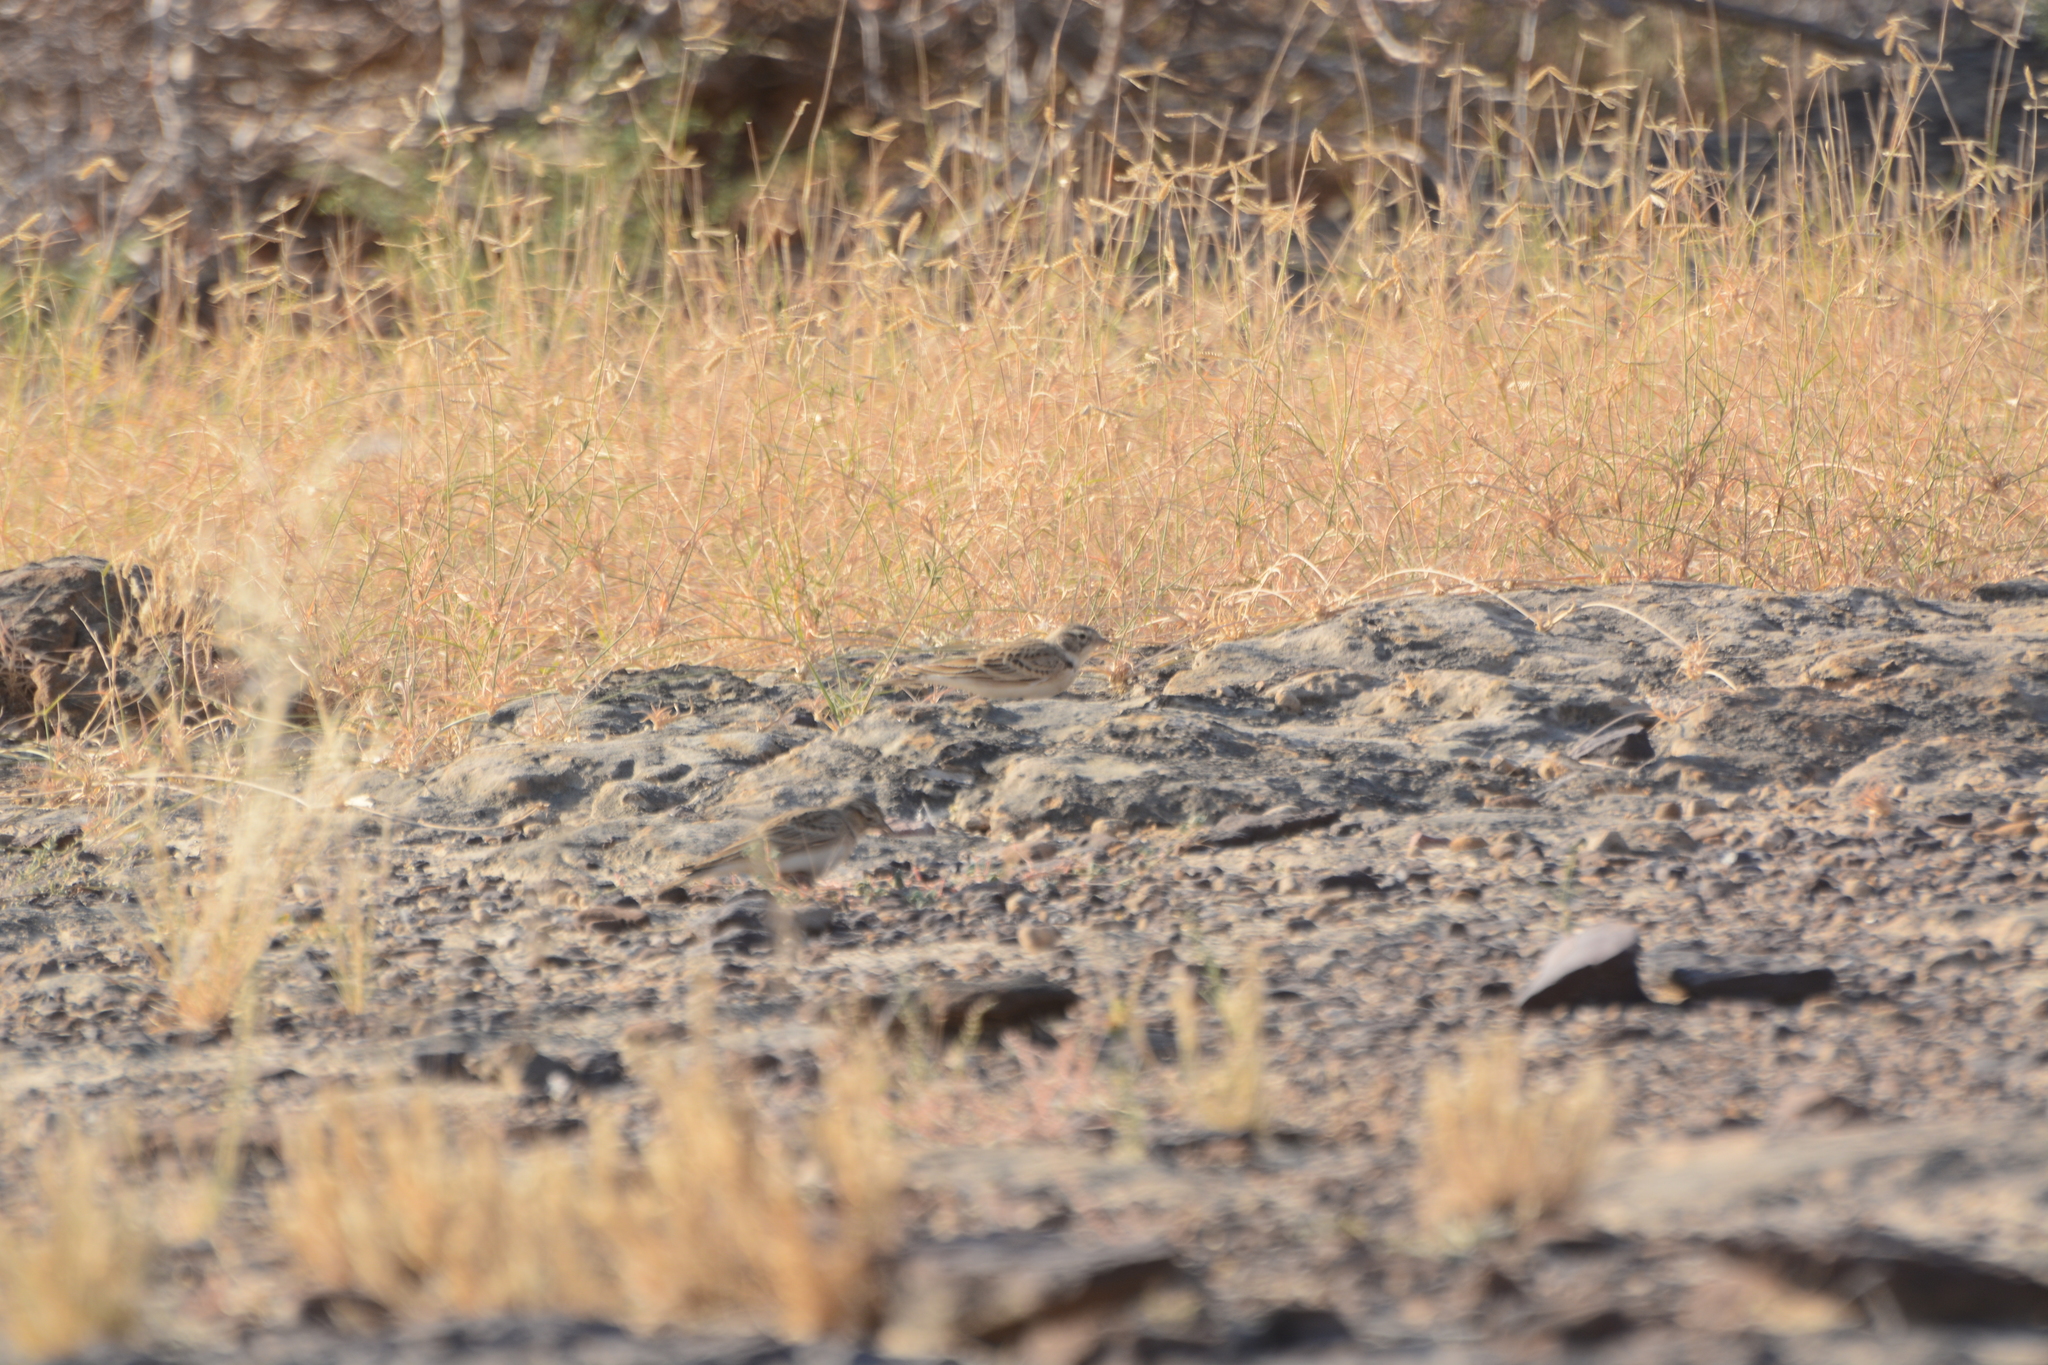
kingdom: Animalia
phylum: Chordata
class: Aves
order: Passeriformes
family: Emberizidae
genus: Emberiza
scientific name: Emberiza stewarti
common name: White-capped bunting
